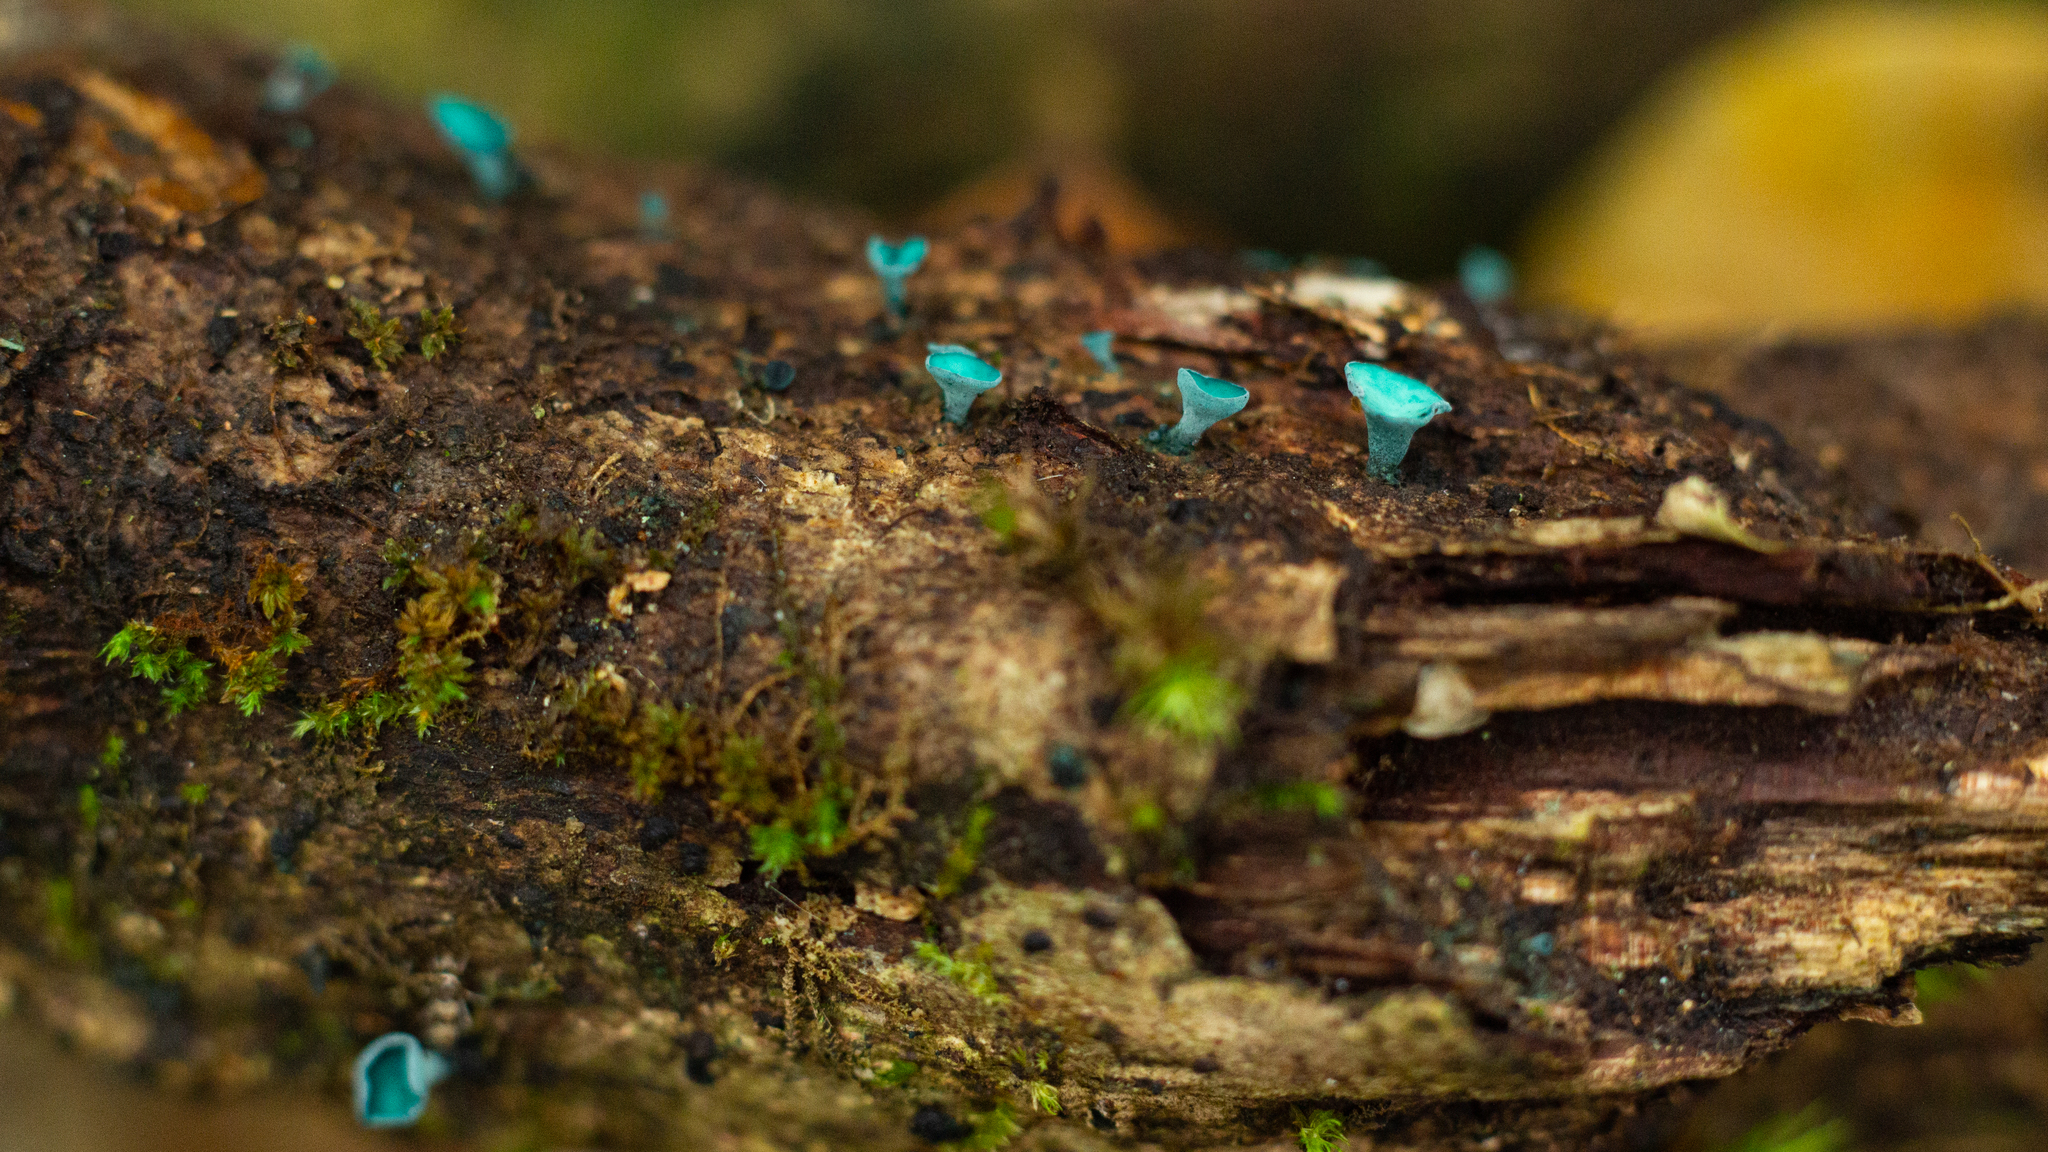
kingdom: Fungi
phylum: Ascomycota
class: Leotiomycetes
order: Helotiales
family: Chlorociboriaceae
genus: Chlorociboria
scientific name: Chlorociboria aeruginascens
